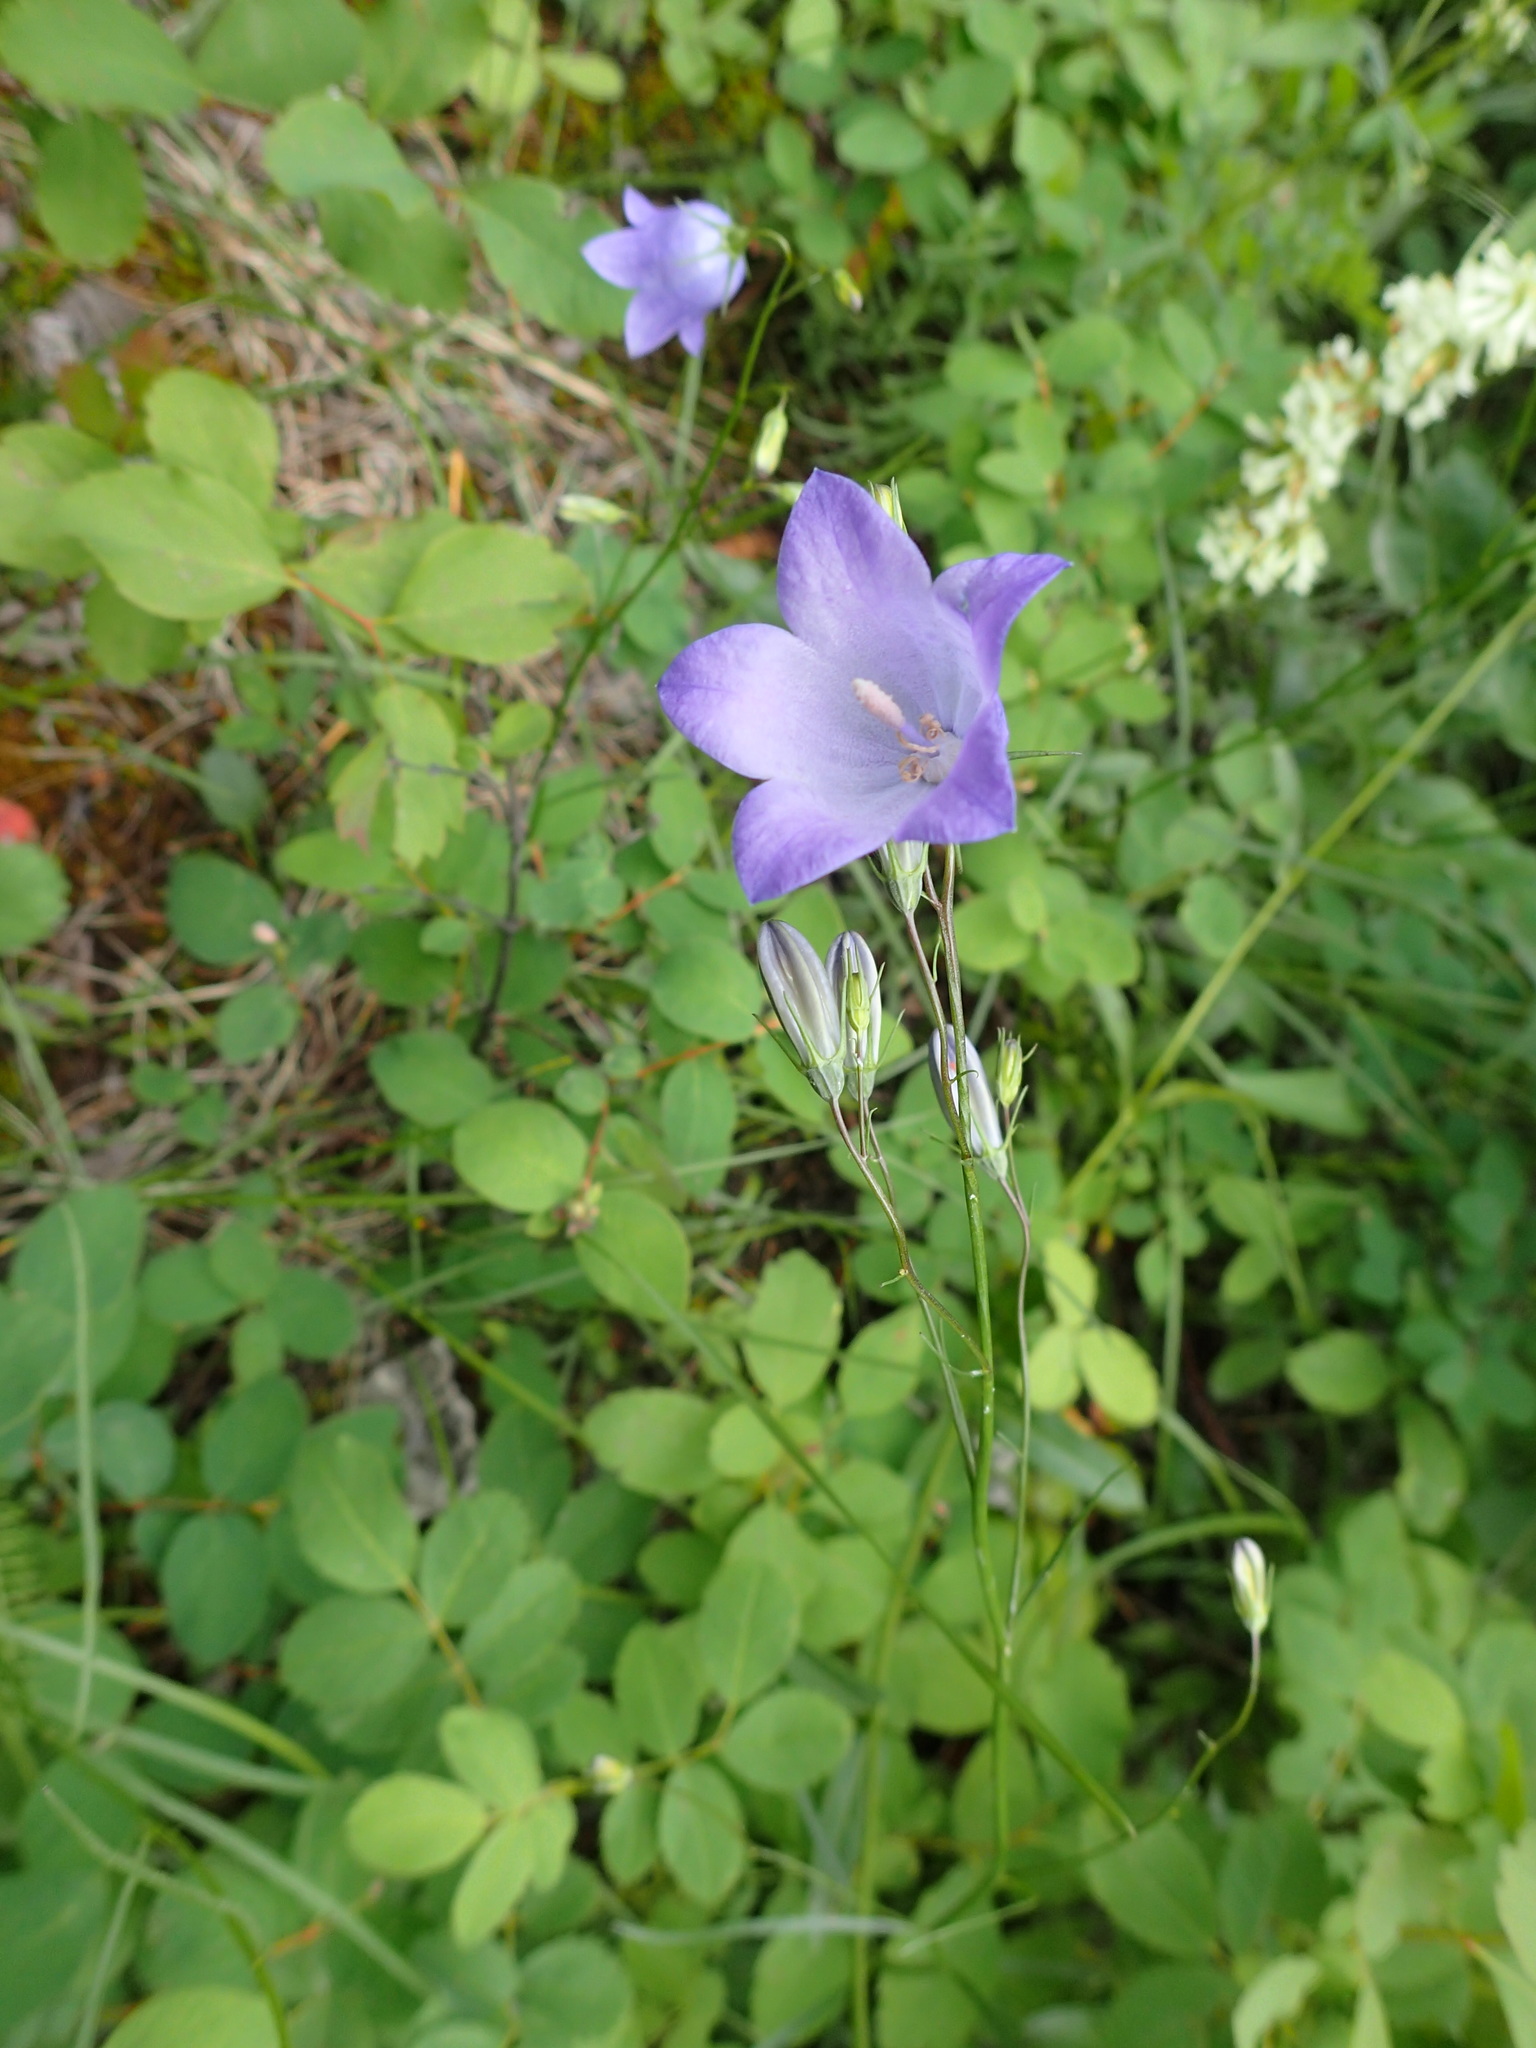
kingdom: Plantae
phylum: Tracheophyta
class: Magnoliopsida
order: Asterales
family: Campanulaceae
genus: Campanula
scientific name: Campanula alaskana
